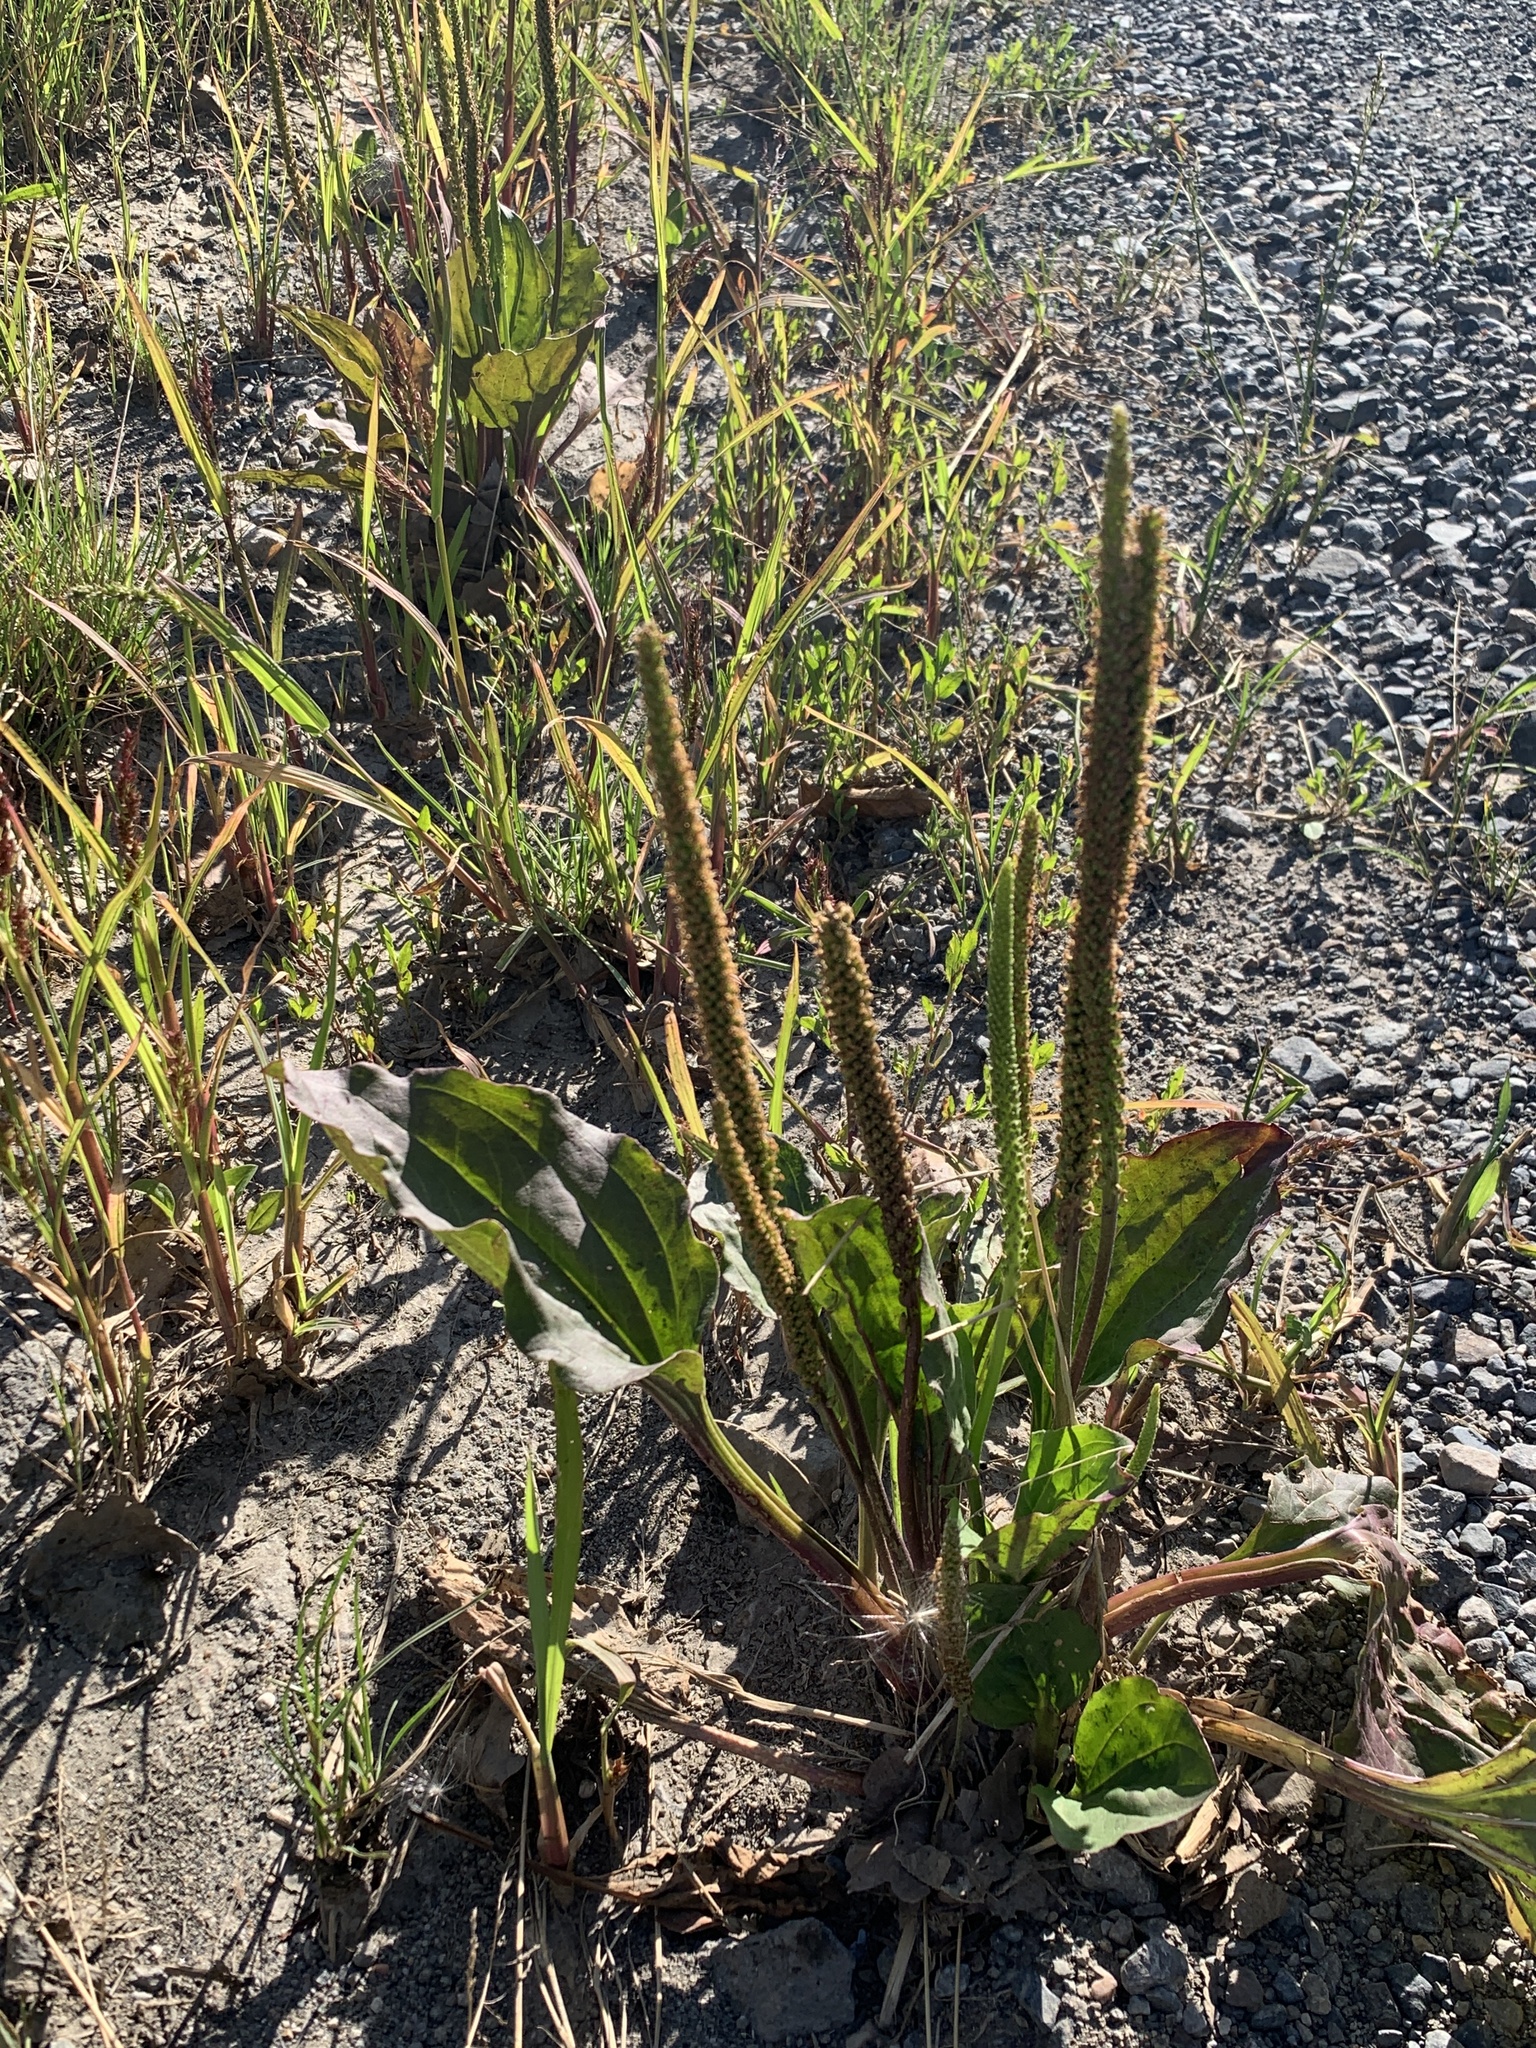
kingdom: Plantae
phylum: Tracheophyta
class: Magnoliopsida
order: Lamiales
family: Plantaginaceae
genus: Plantago
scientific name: Plantago major
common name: Common plantain
